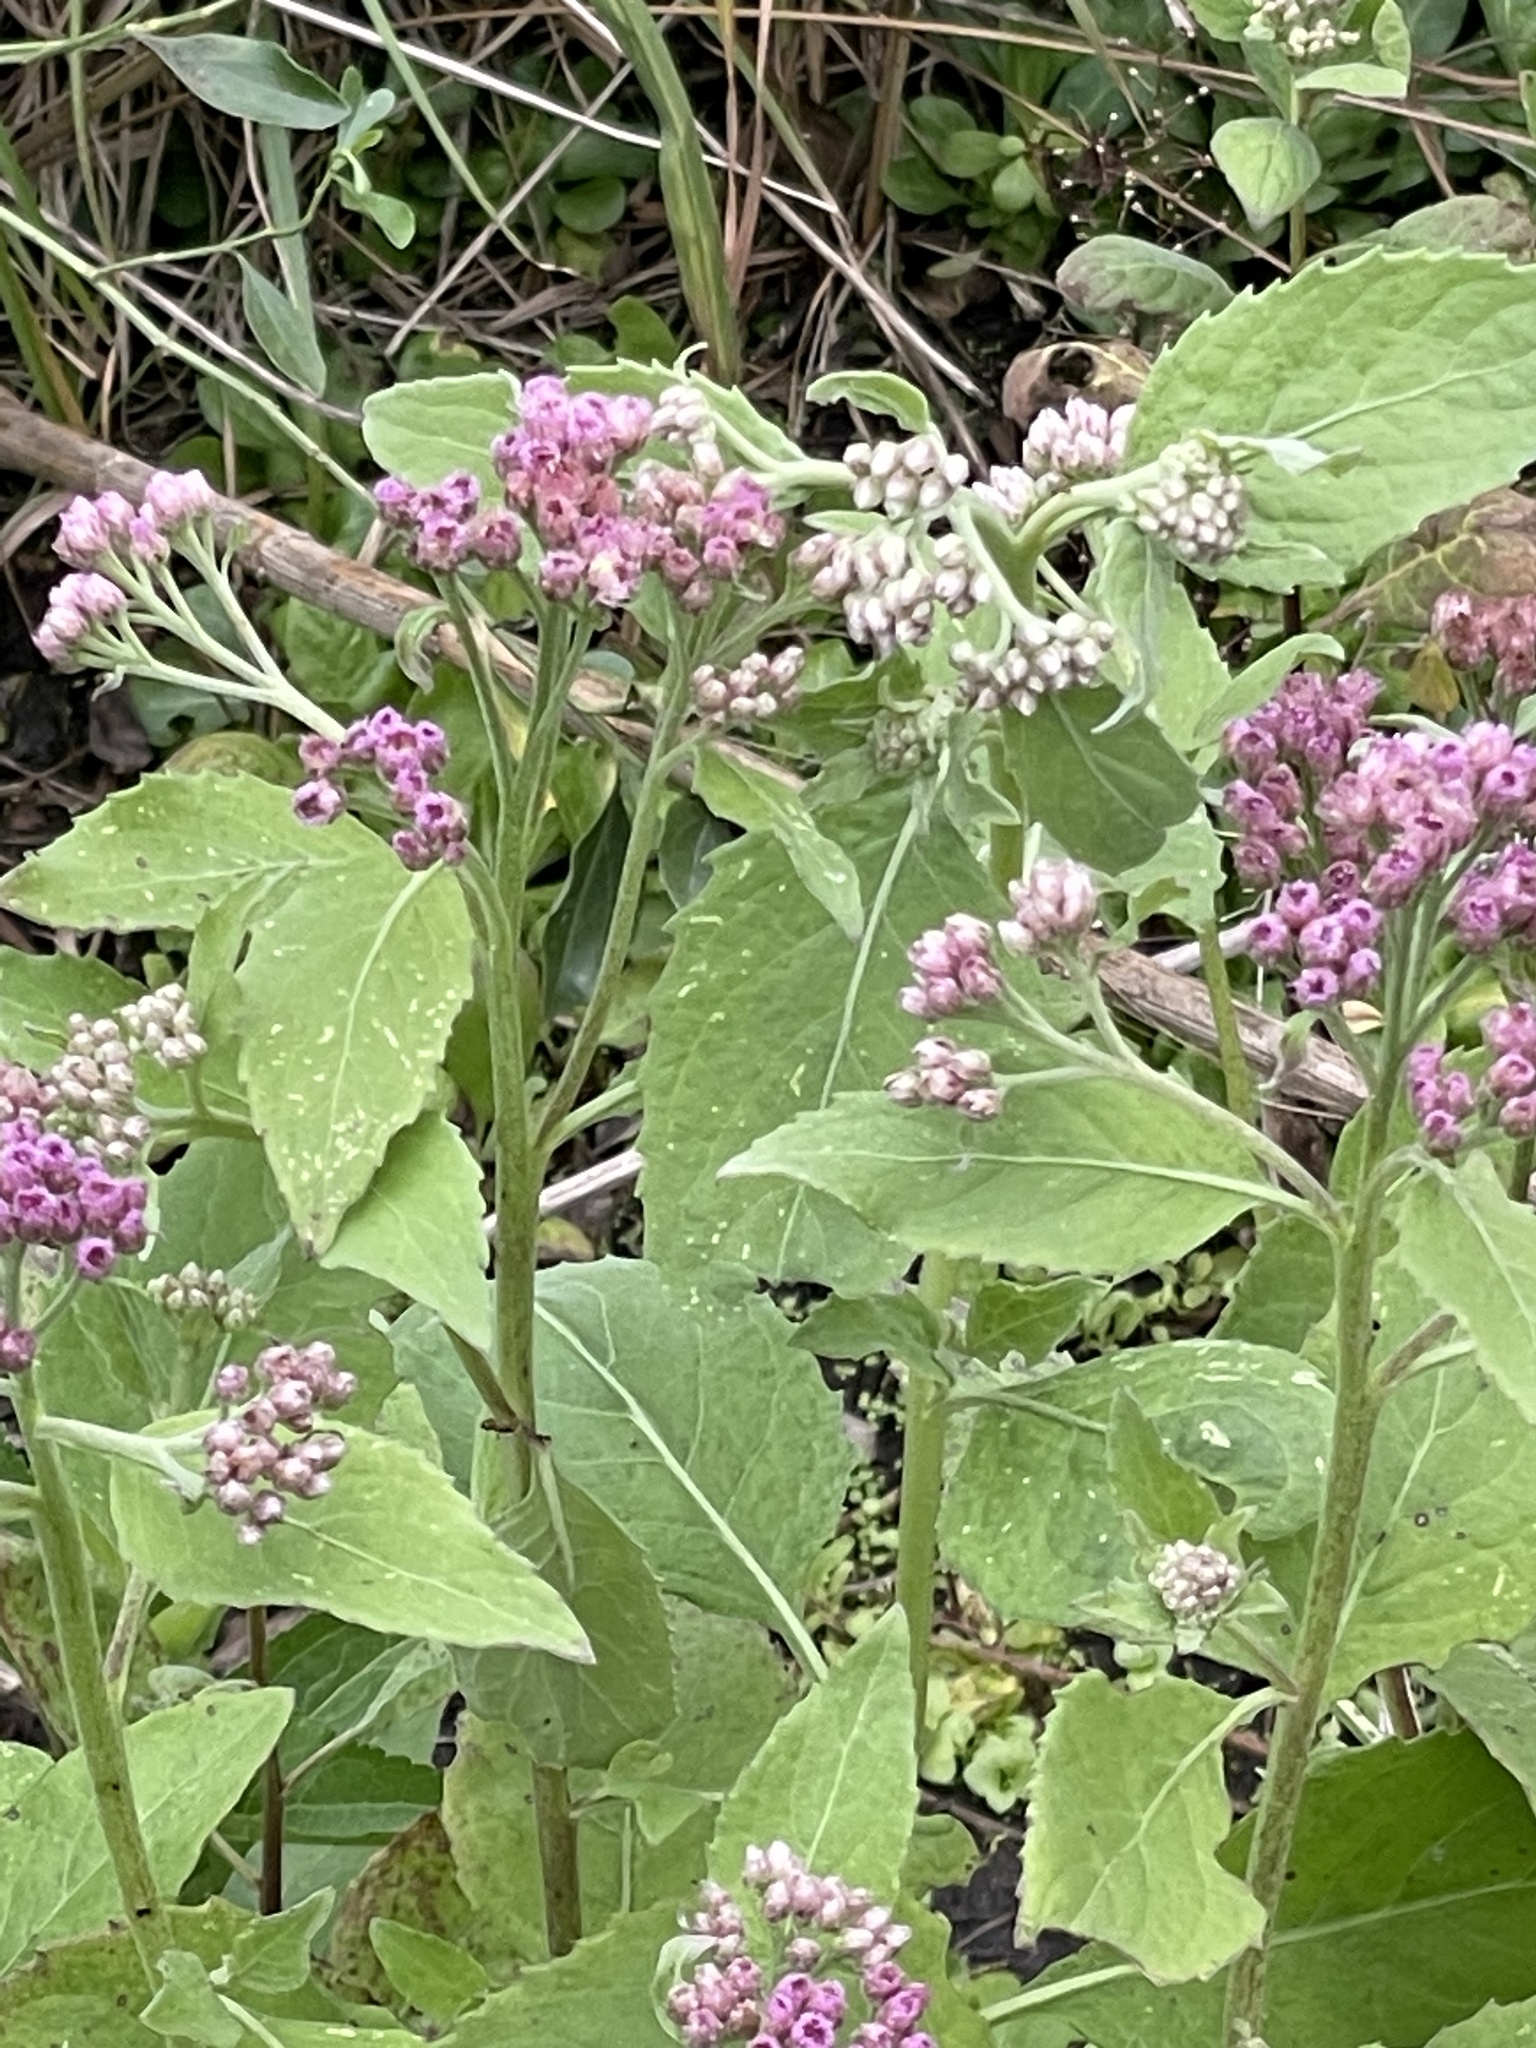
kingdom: Plantae
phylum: Tracheophyta
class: Magnoliopsida
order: Asterales
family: Asteraceae
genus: Pluchea
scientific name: Pluchea odorata
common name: Saltmarsh fleabane
